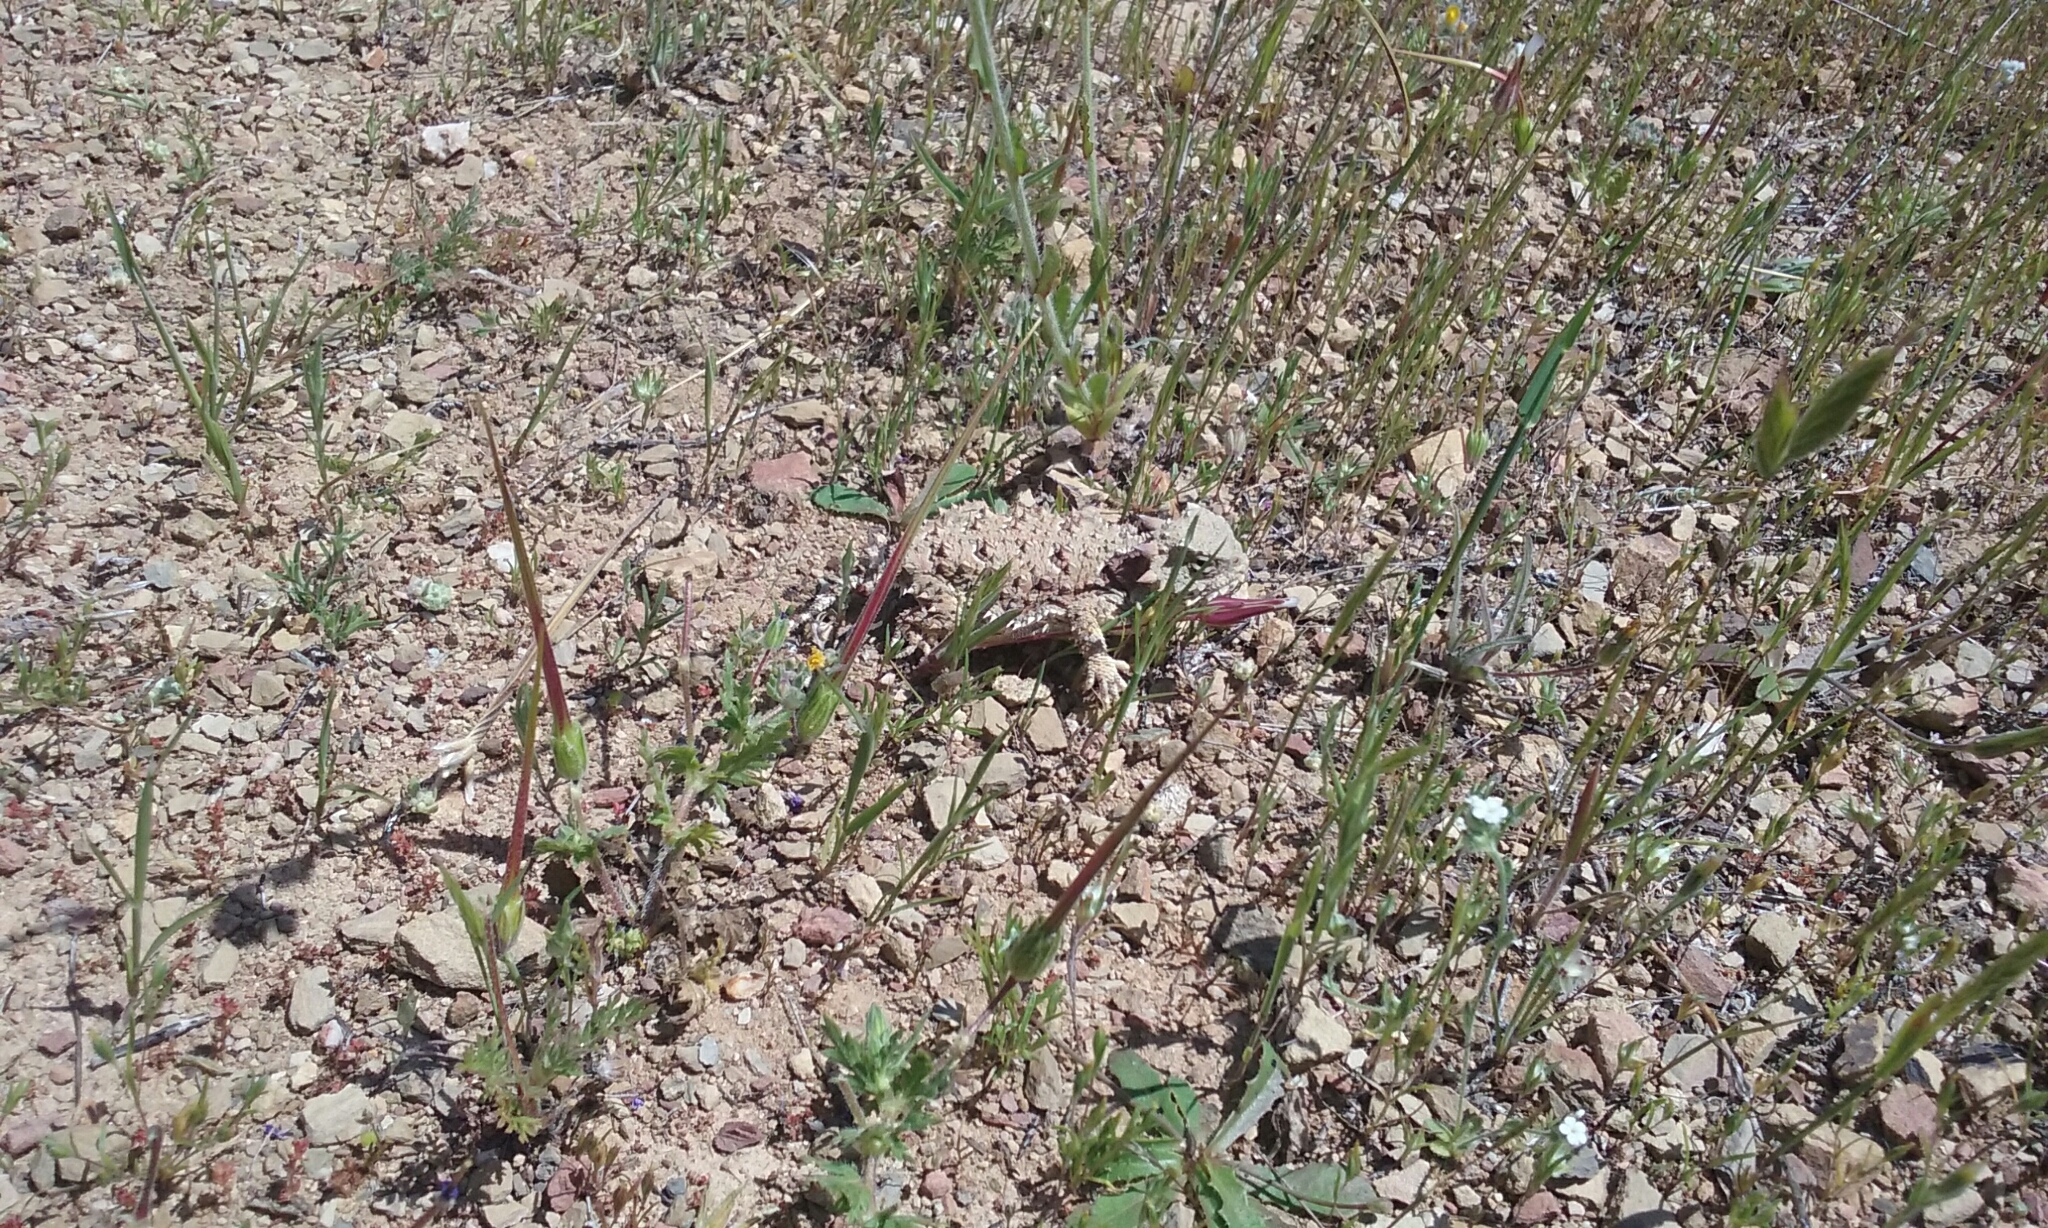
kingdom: Animalia
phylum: Chordata
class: Squamata
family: Phrynosomatidae
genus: Phrynosoma
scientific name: Phrynosoma blainvillii
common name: San diego horned lizard
